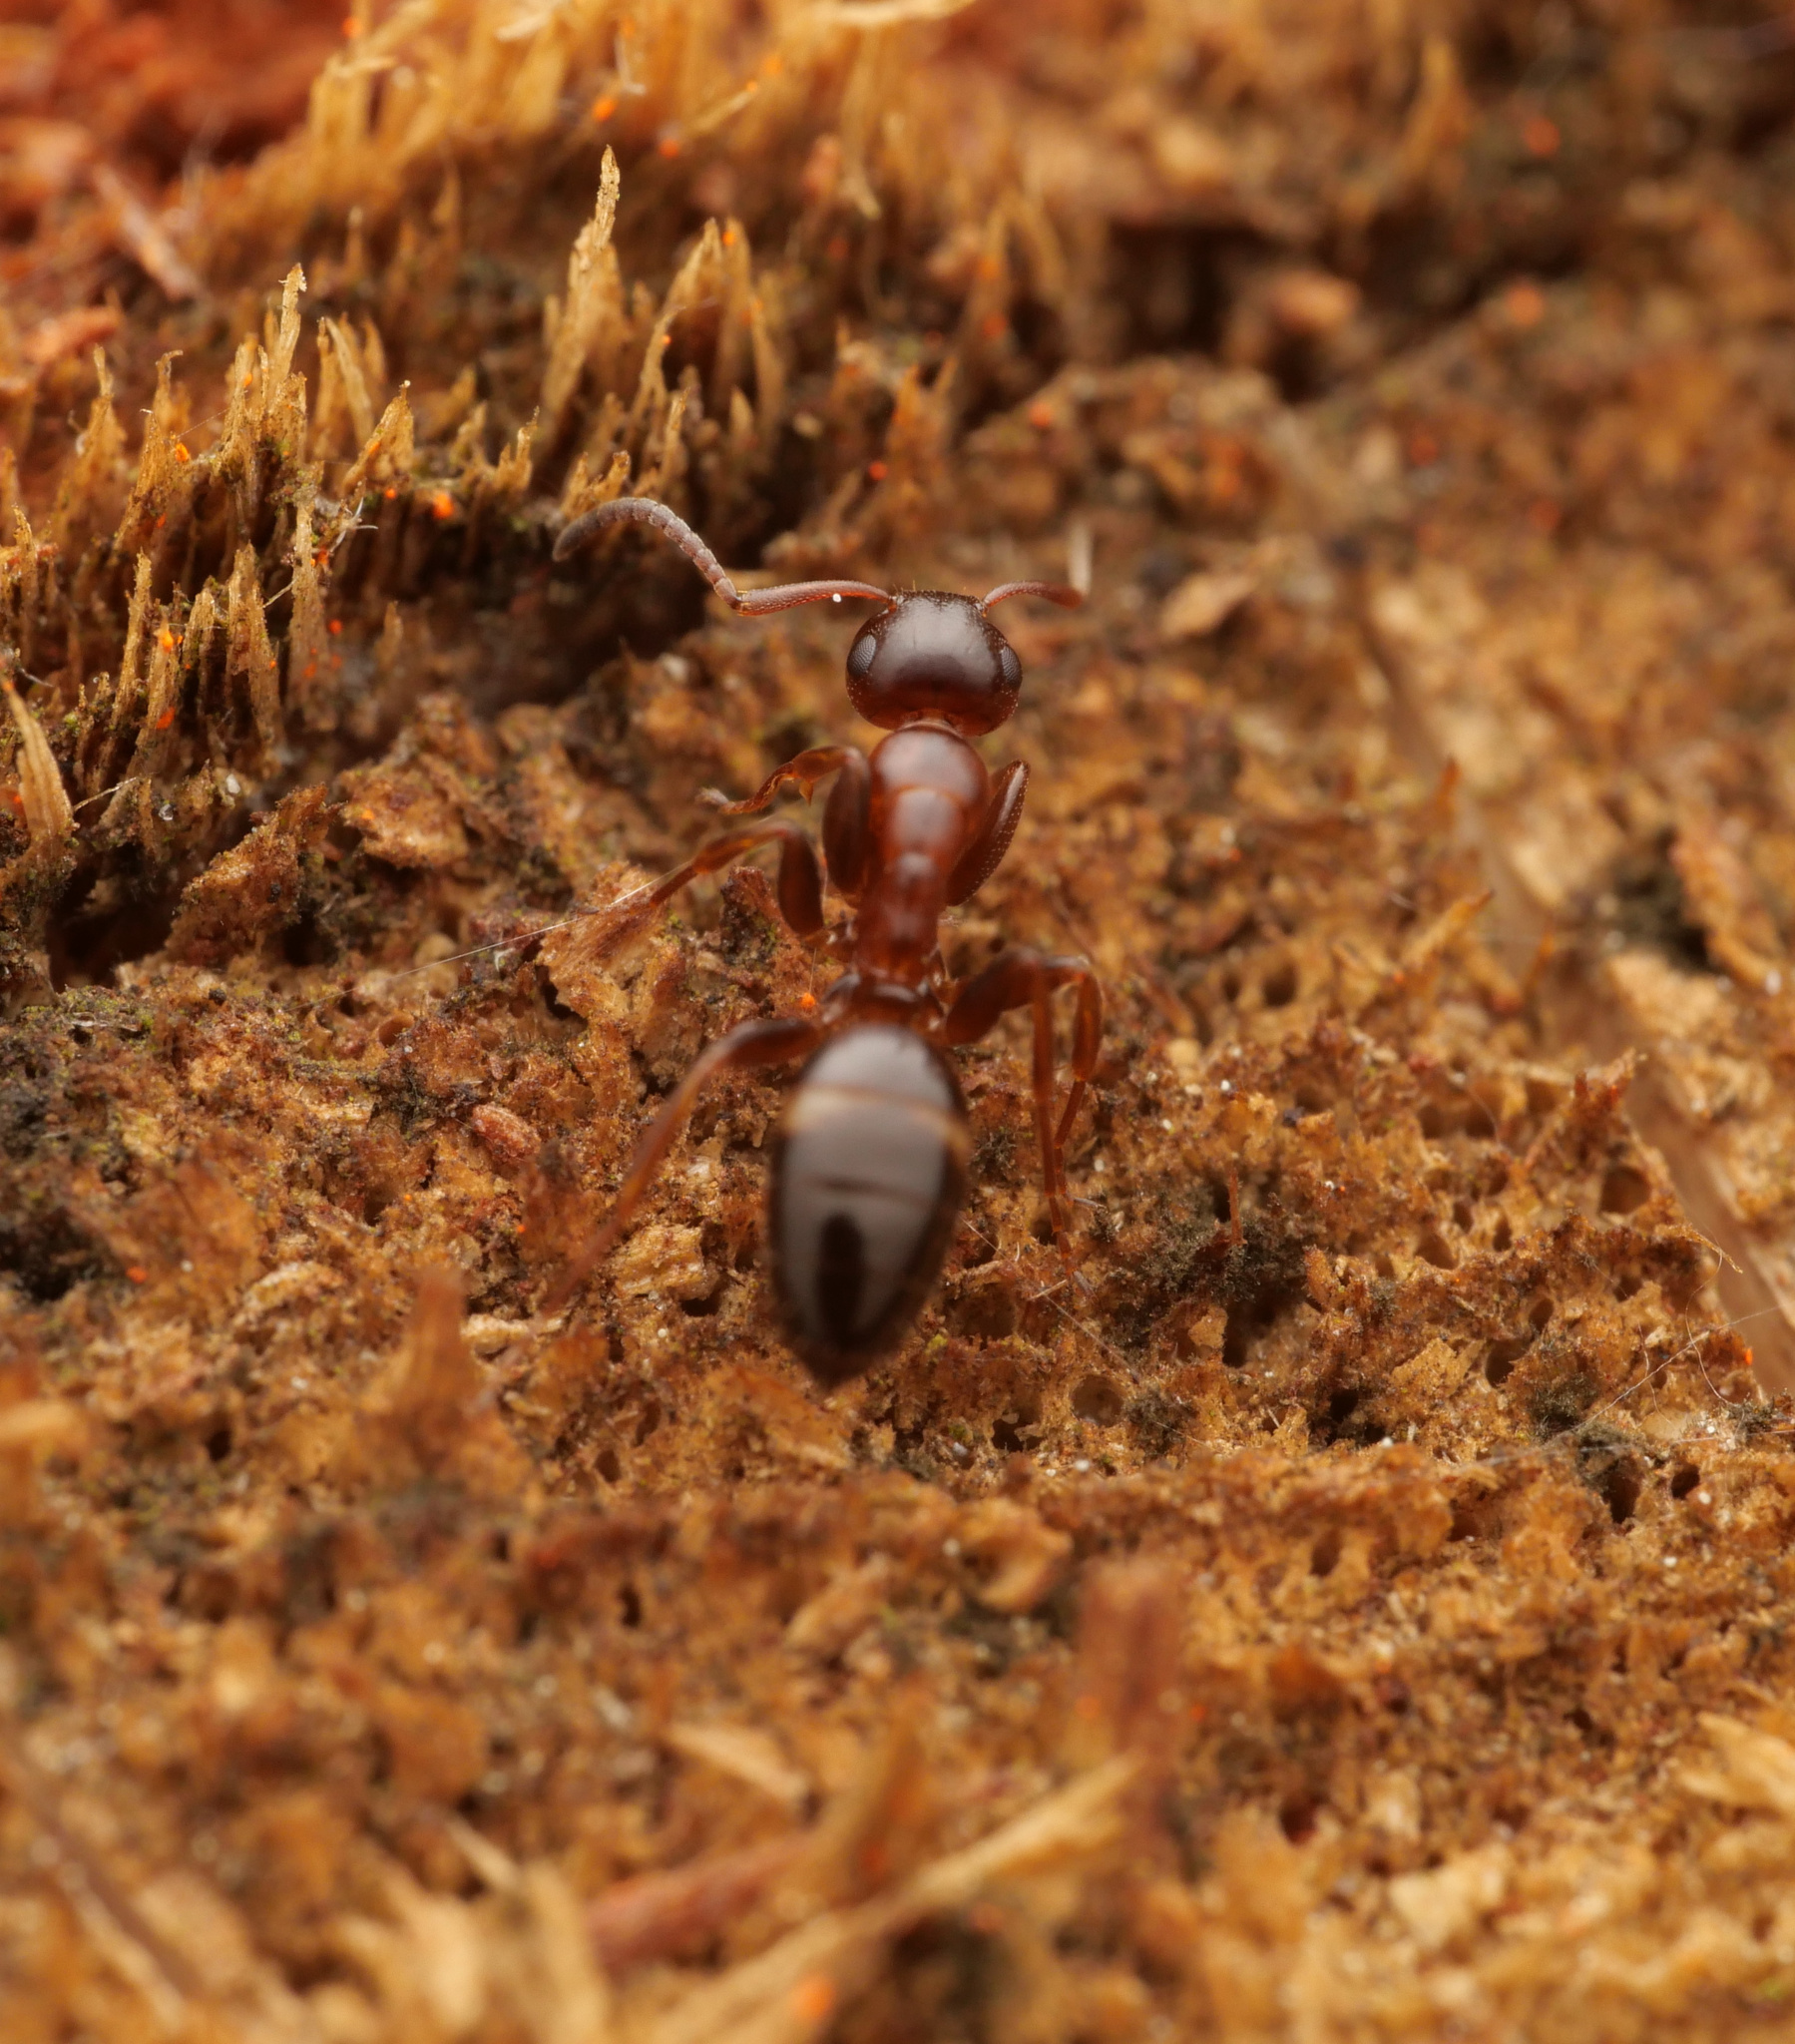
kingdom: Animalia
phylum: Arthropoda
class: Insecta
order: Hymenoptera
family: Formicidae
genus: Camponotus
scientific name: Camponotus truncatus
